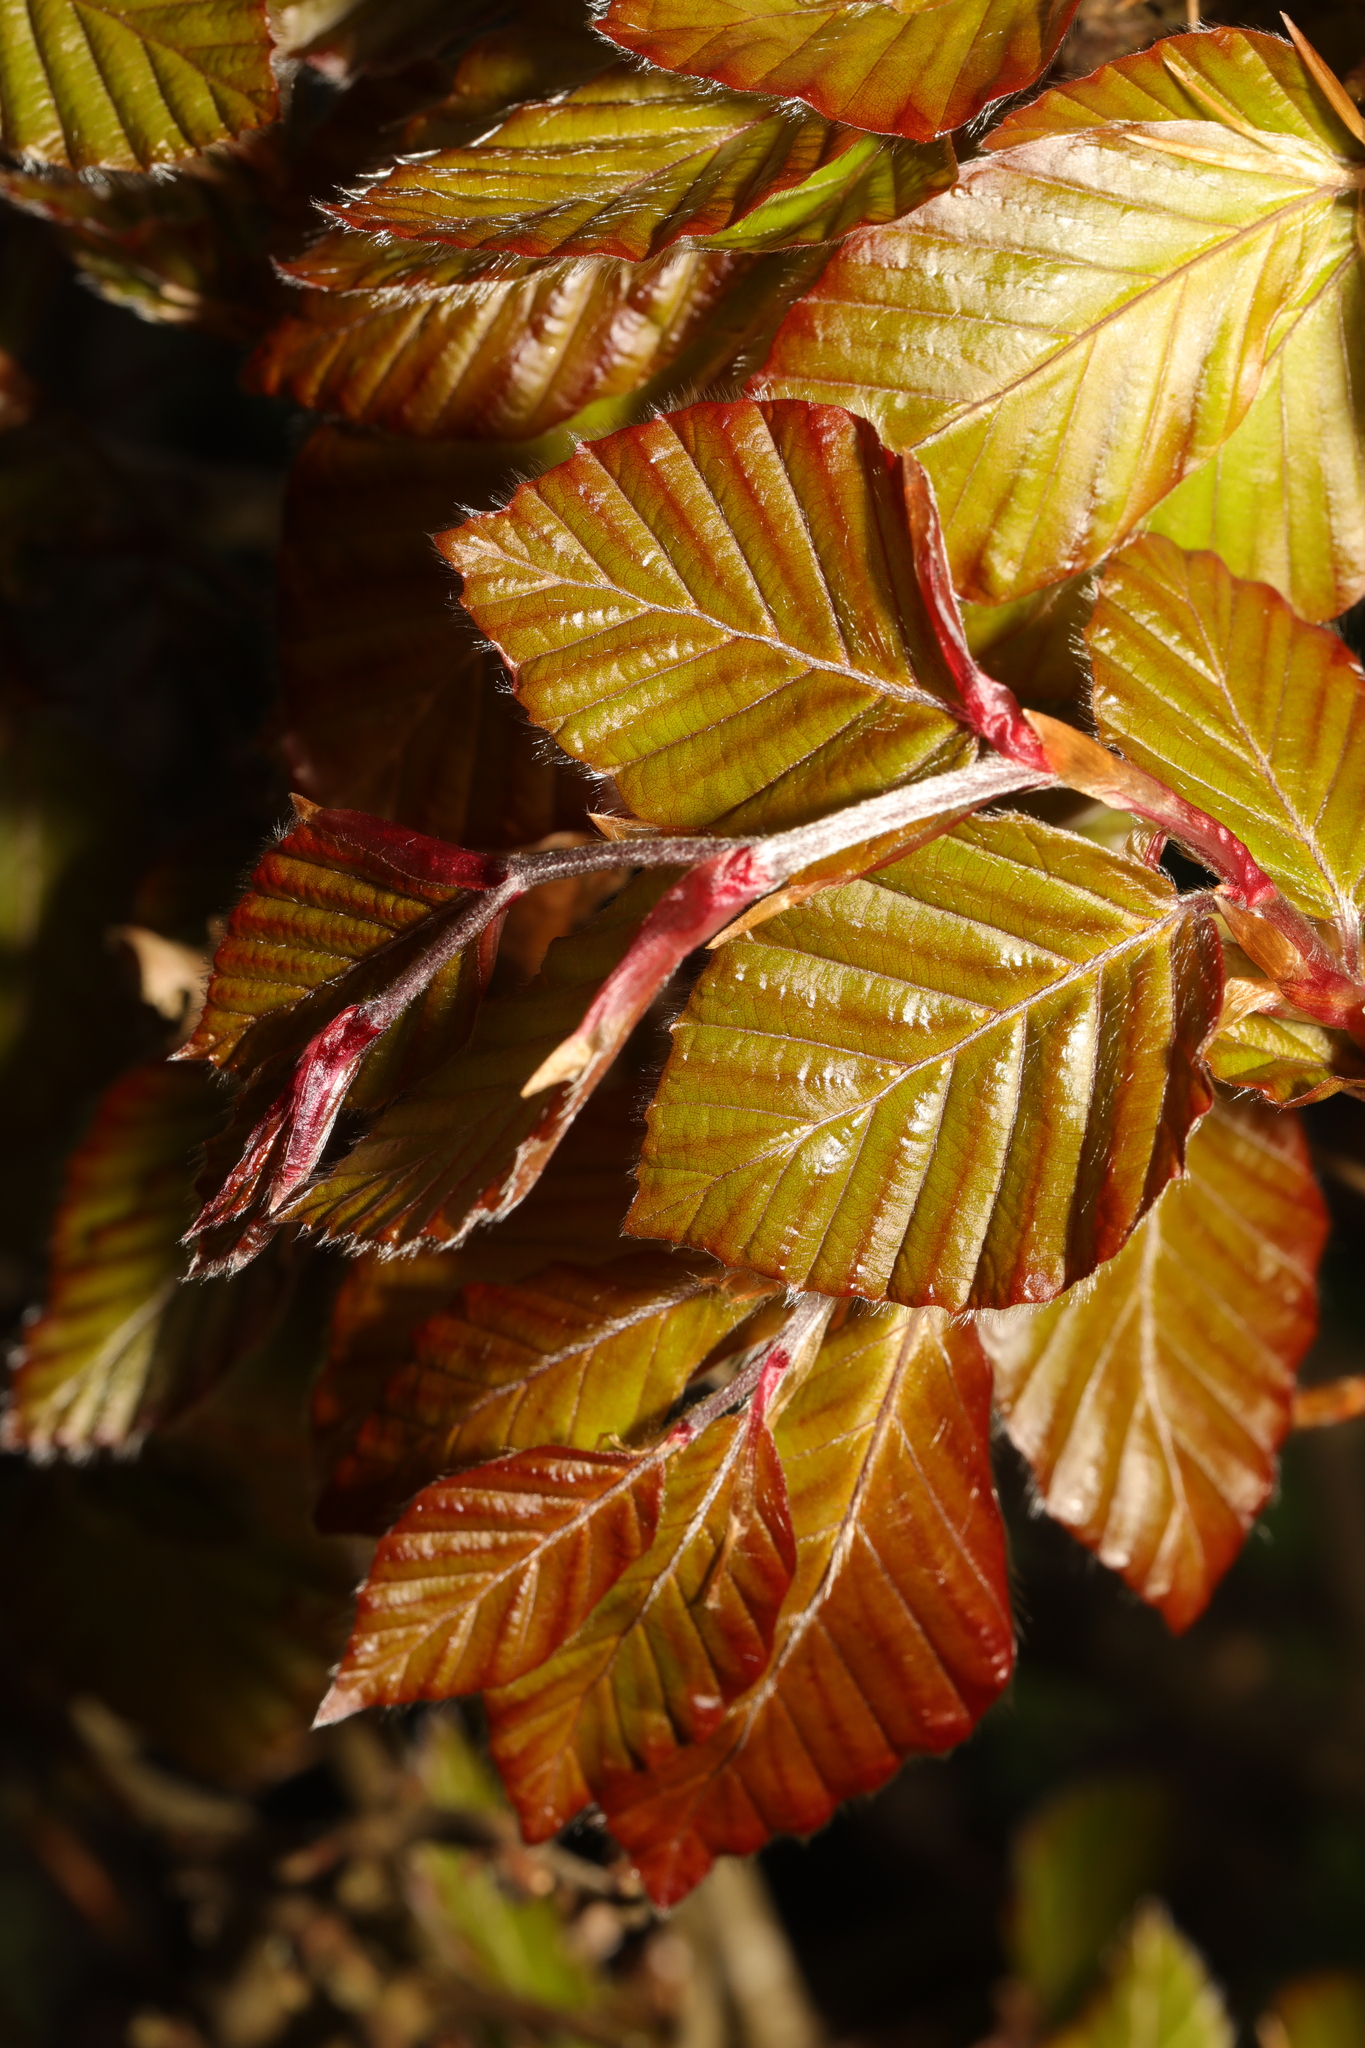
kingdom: Plantae
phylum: Tracheophyta
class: Magnoliopsida
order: Fagales
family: Fagaceae
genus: Fagus
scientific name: Fagus sylvatica
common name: Beech
